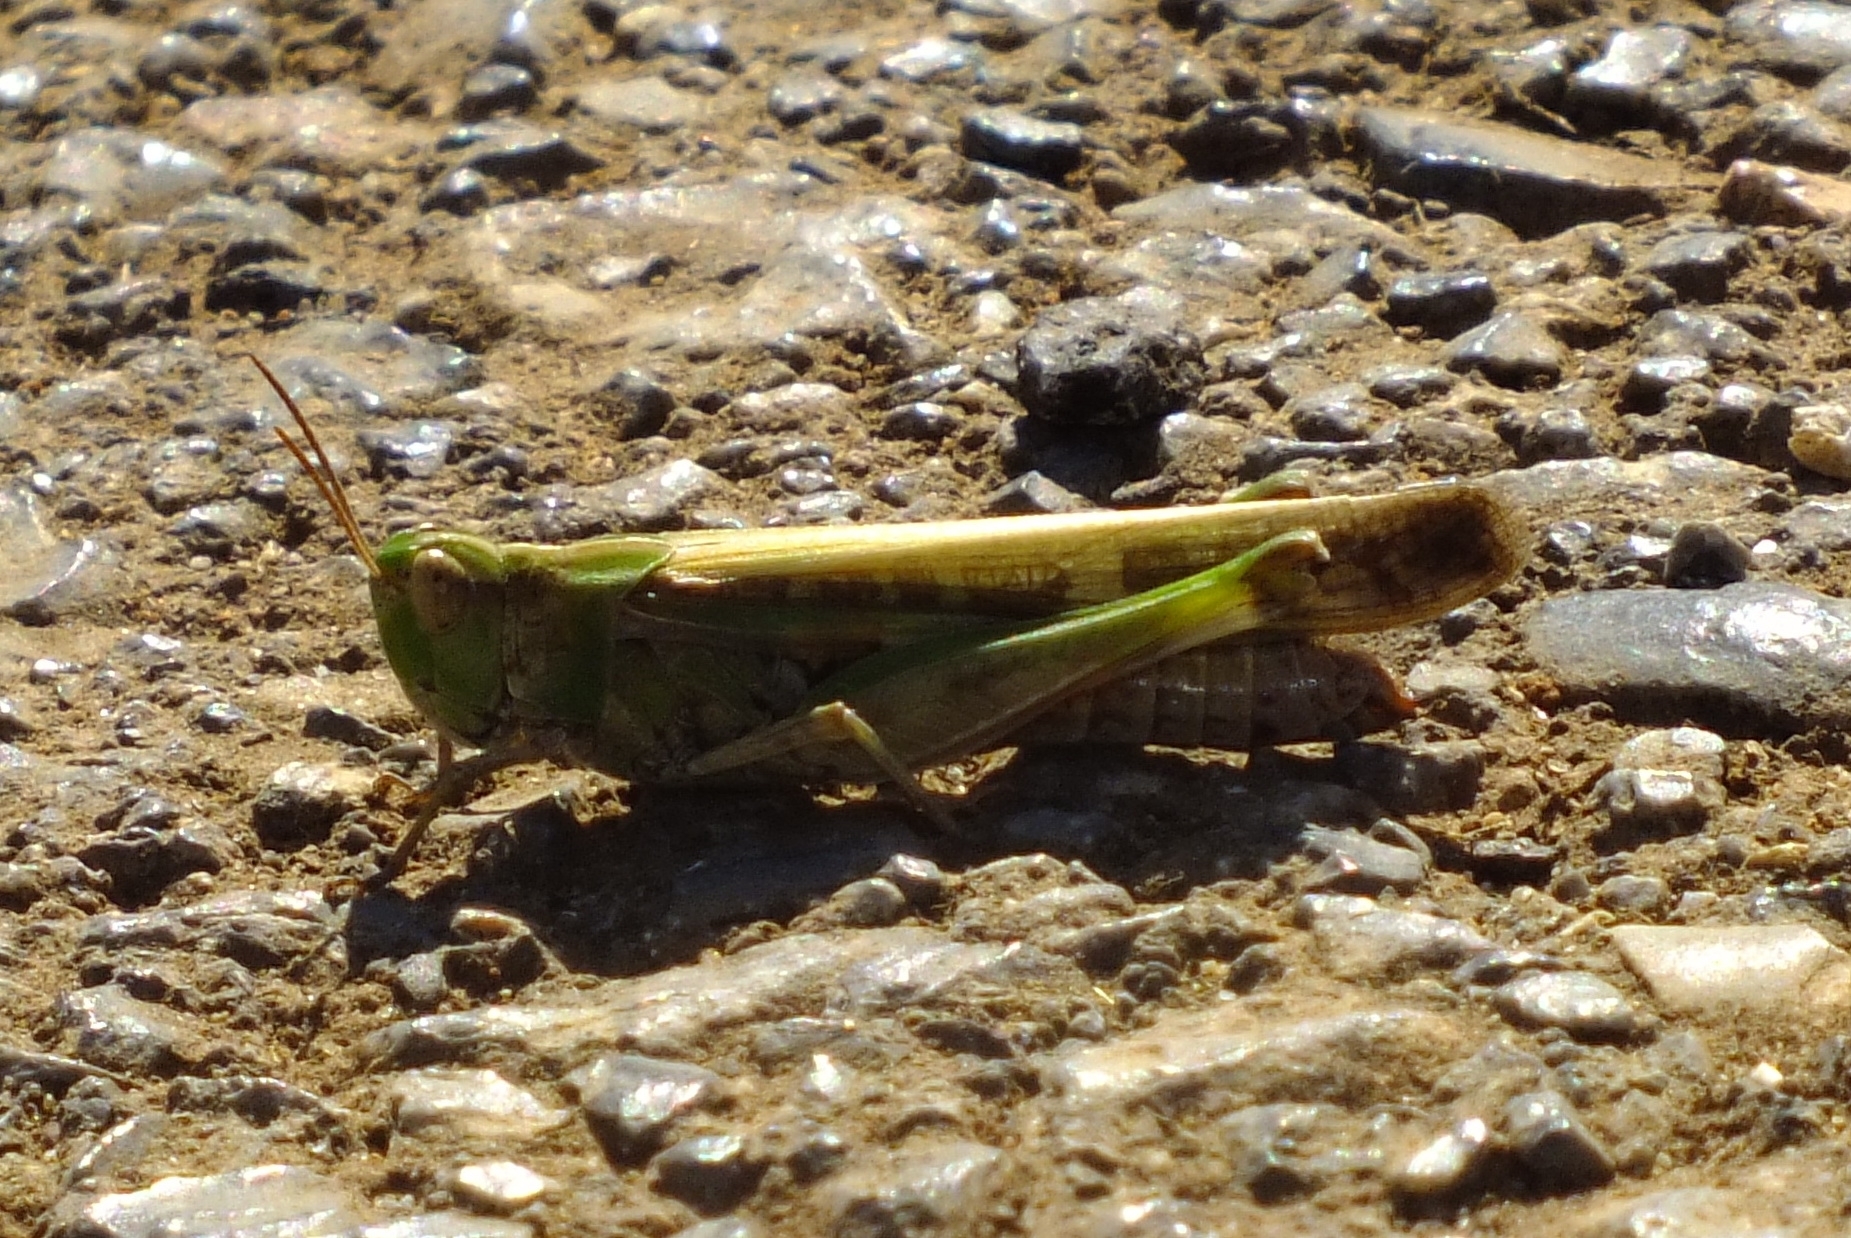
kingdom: Animalia
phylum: Arthropoda
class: Insecta
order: Orthoptera
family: Acrididae
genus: Aiolopus
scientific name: Aiolopus thalassinus
